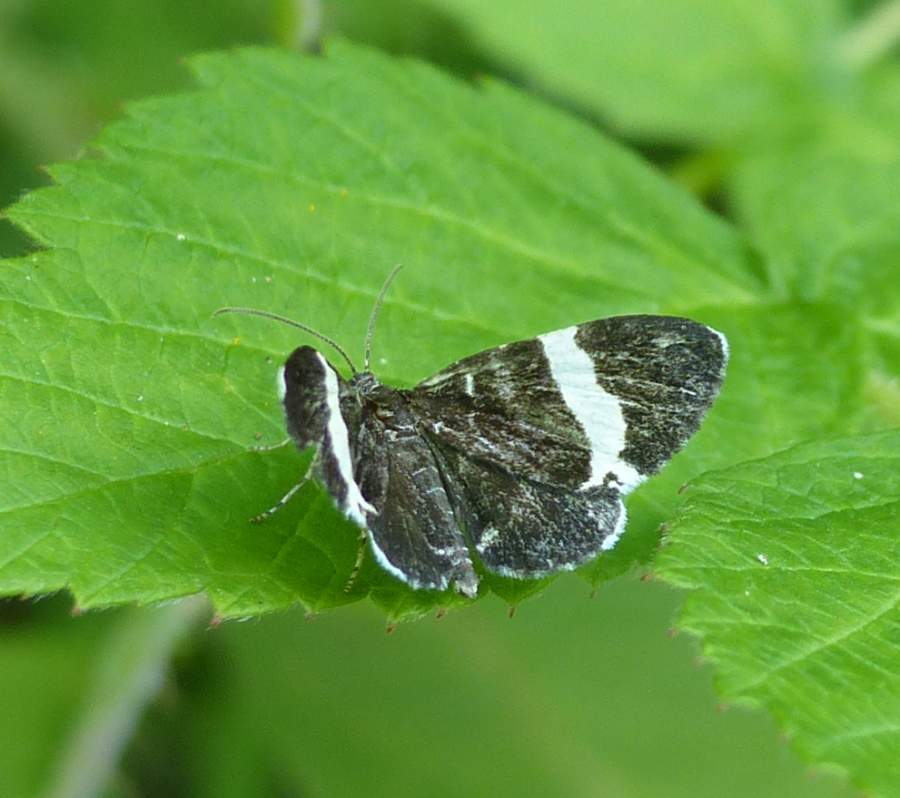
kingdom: Animalia
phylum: Arthropoda
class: Insecta
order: Lepidoptera
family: Geometridae
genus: Trichodezia
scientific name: Trichodezia albovittata
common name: White striped black
